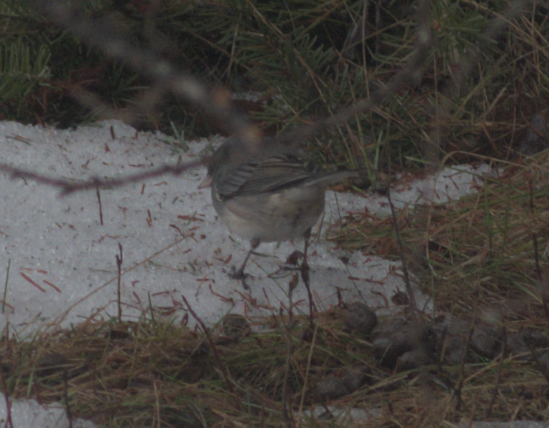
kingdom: Animalia
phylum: Chordata
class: Aves
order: Passeriformes
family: Passerellidae
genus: Junco
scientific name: Junco hyemalis
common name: Dark-eyed junco
